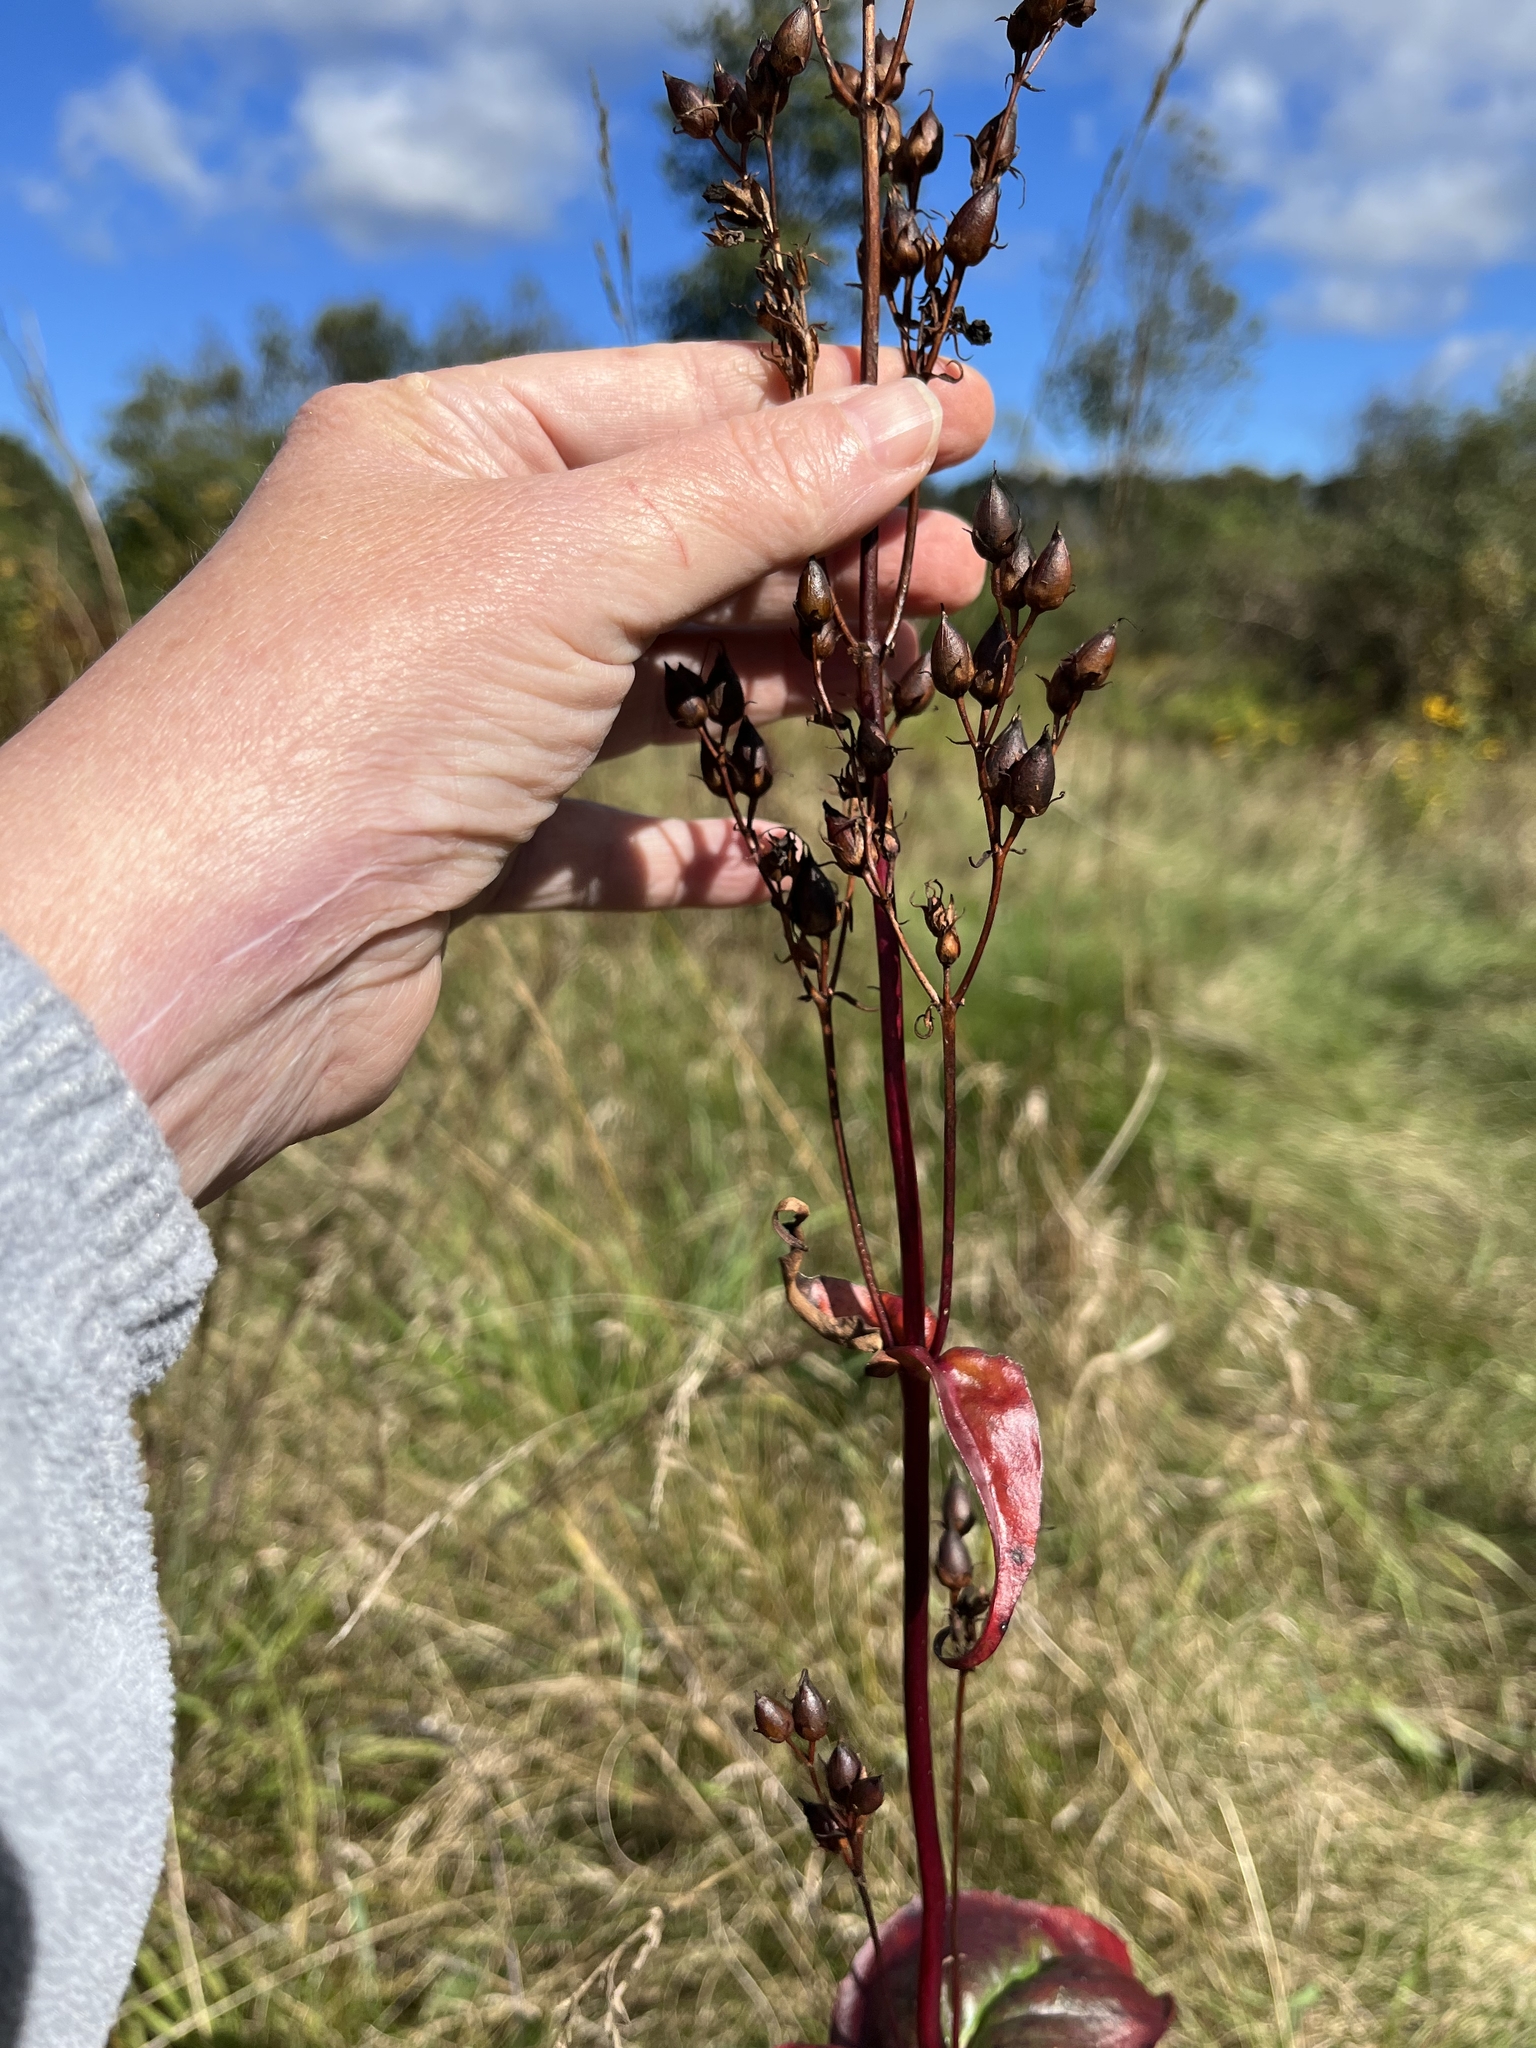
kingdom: Plantae
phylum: Tracheophyta
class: Magnoliopsida
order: Lamiales
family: Plantaginaceae
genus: Penstemon
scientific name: Penstemon digitalis
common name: Foxglove beardtongue
